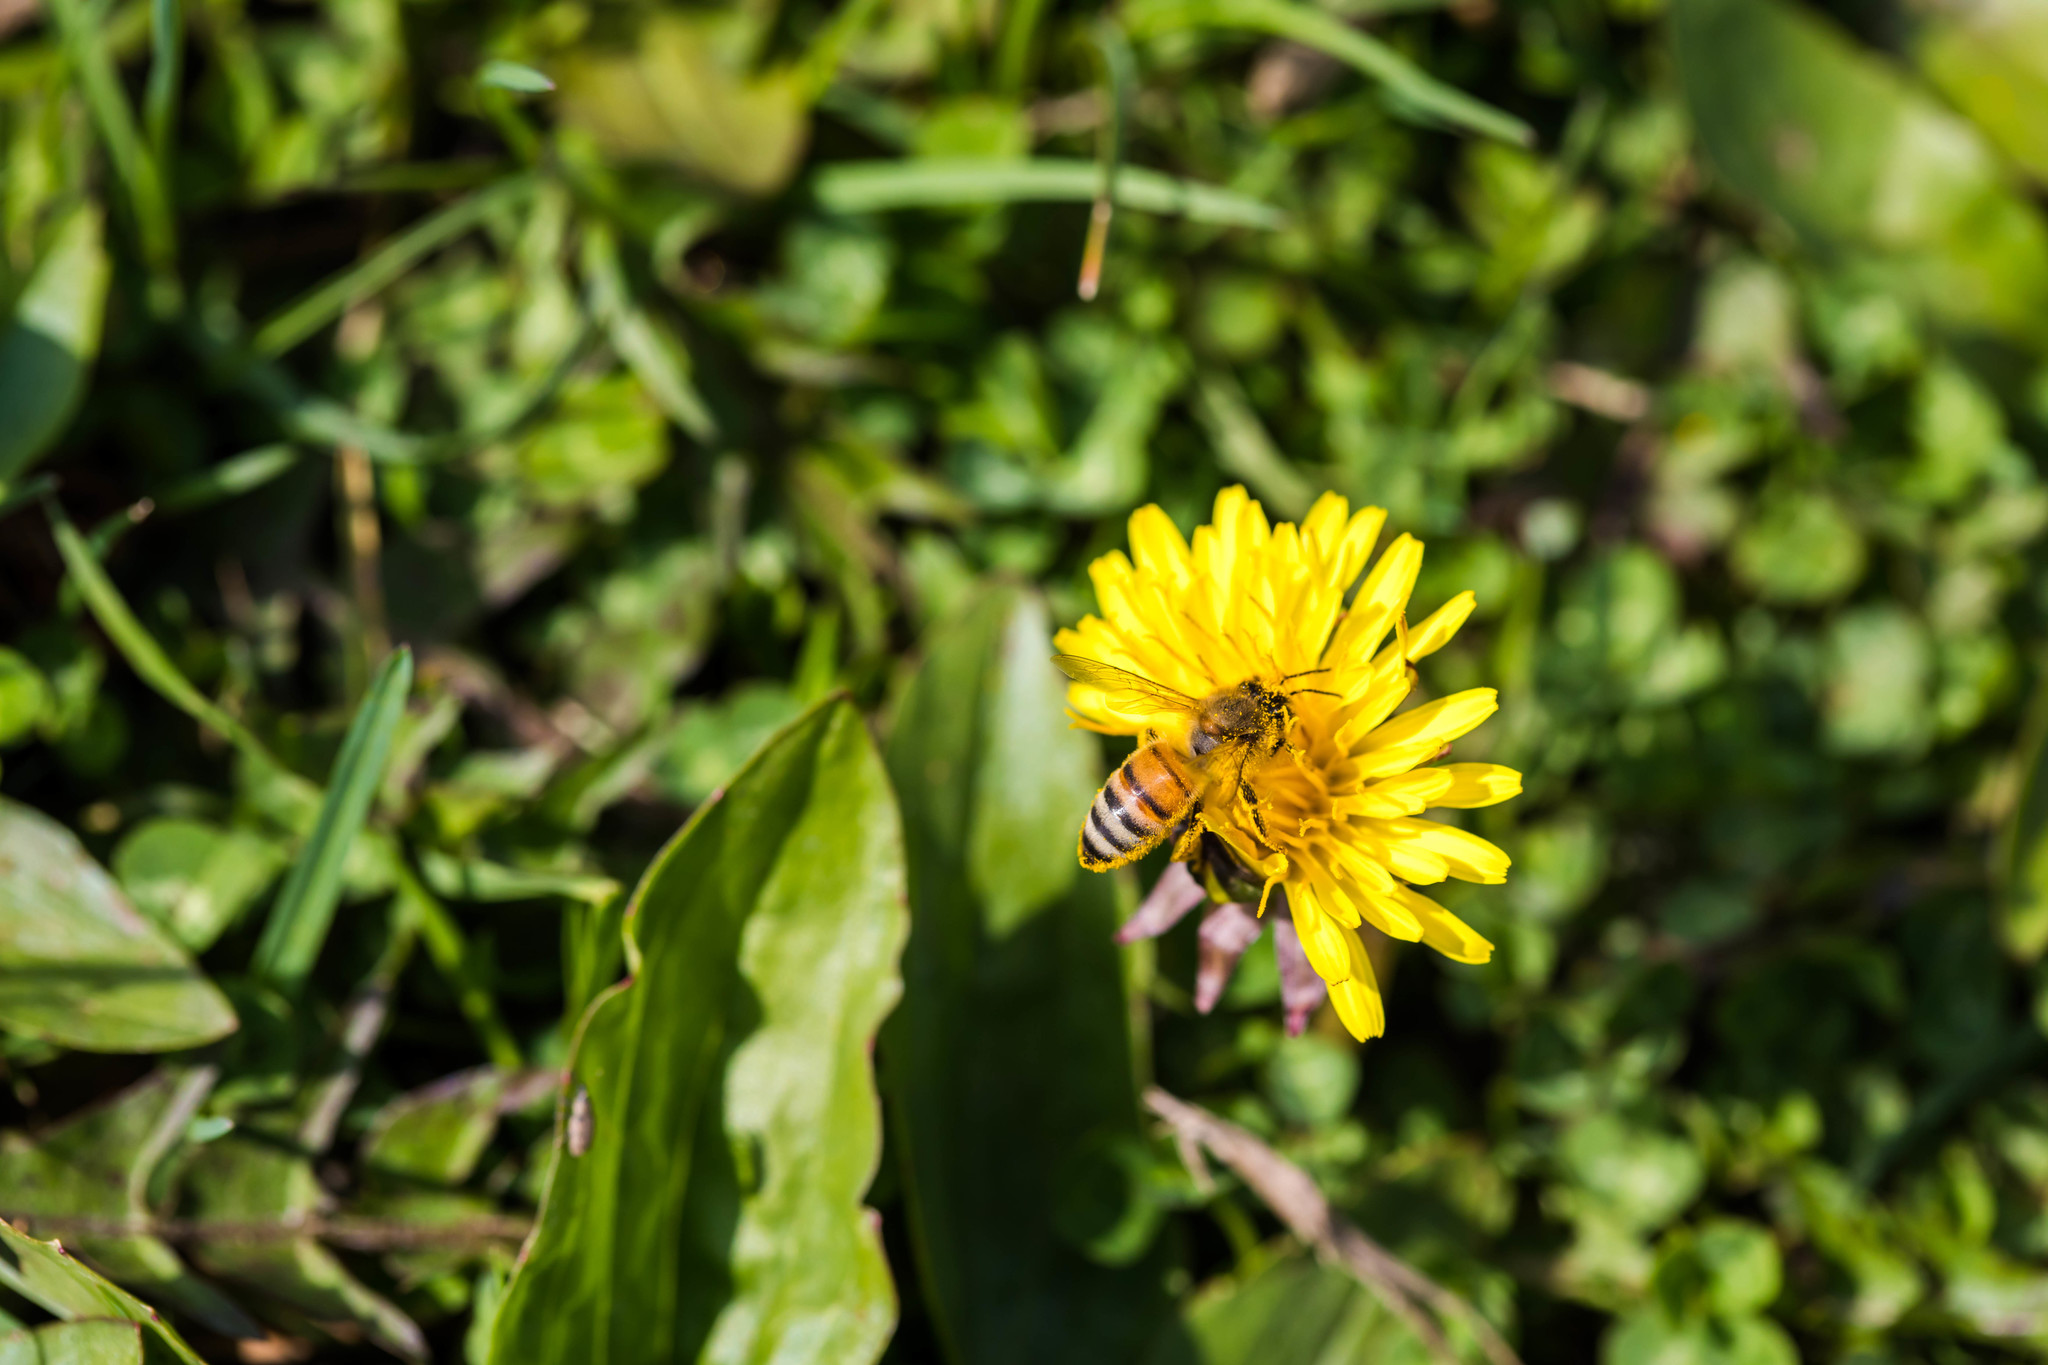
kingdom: Animalia
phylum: Arthropoda
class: Insecta
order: Hymenoptera
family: Apidae
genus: Apis
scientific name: Apis mellifera
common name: Honey bee
